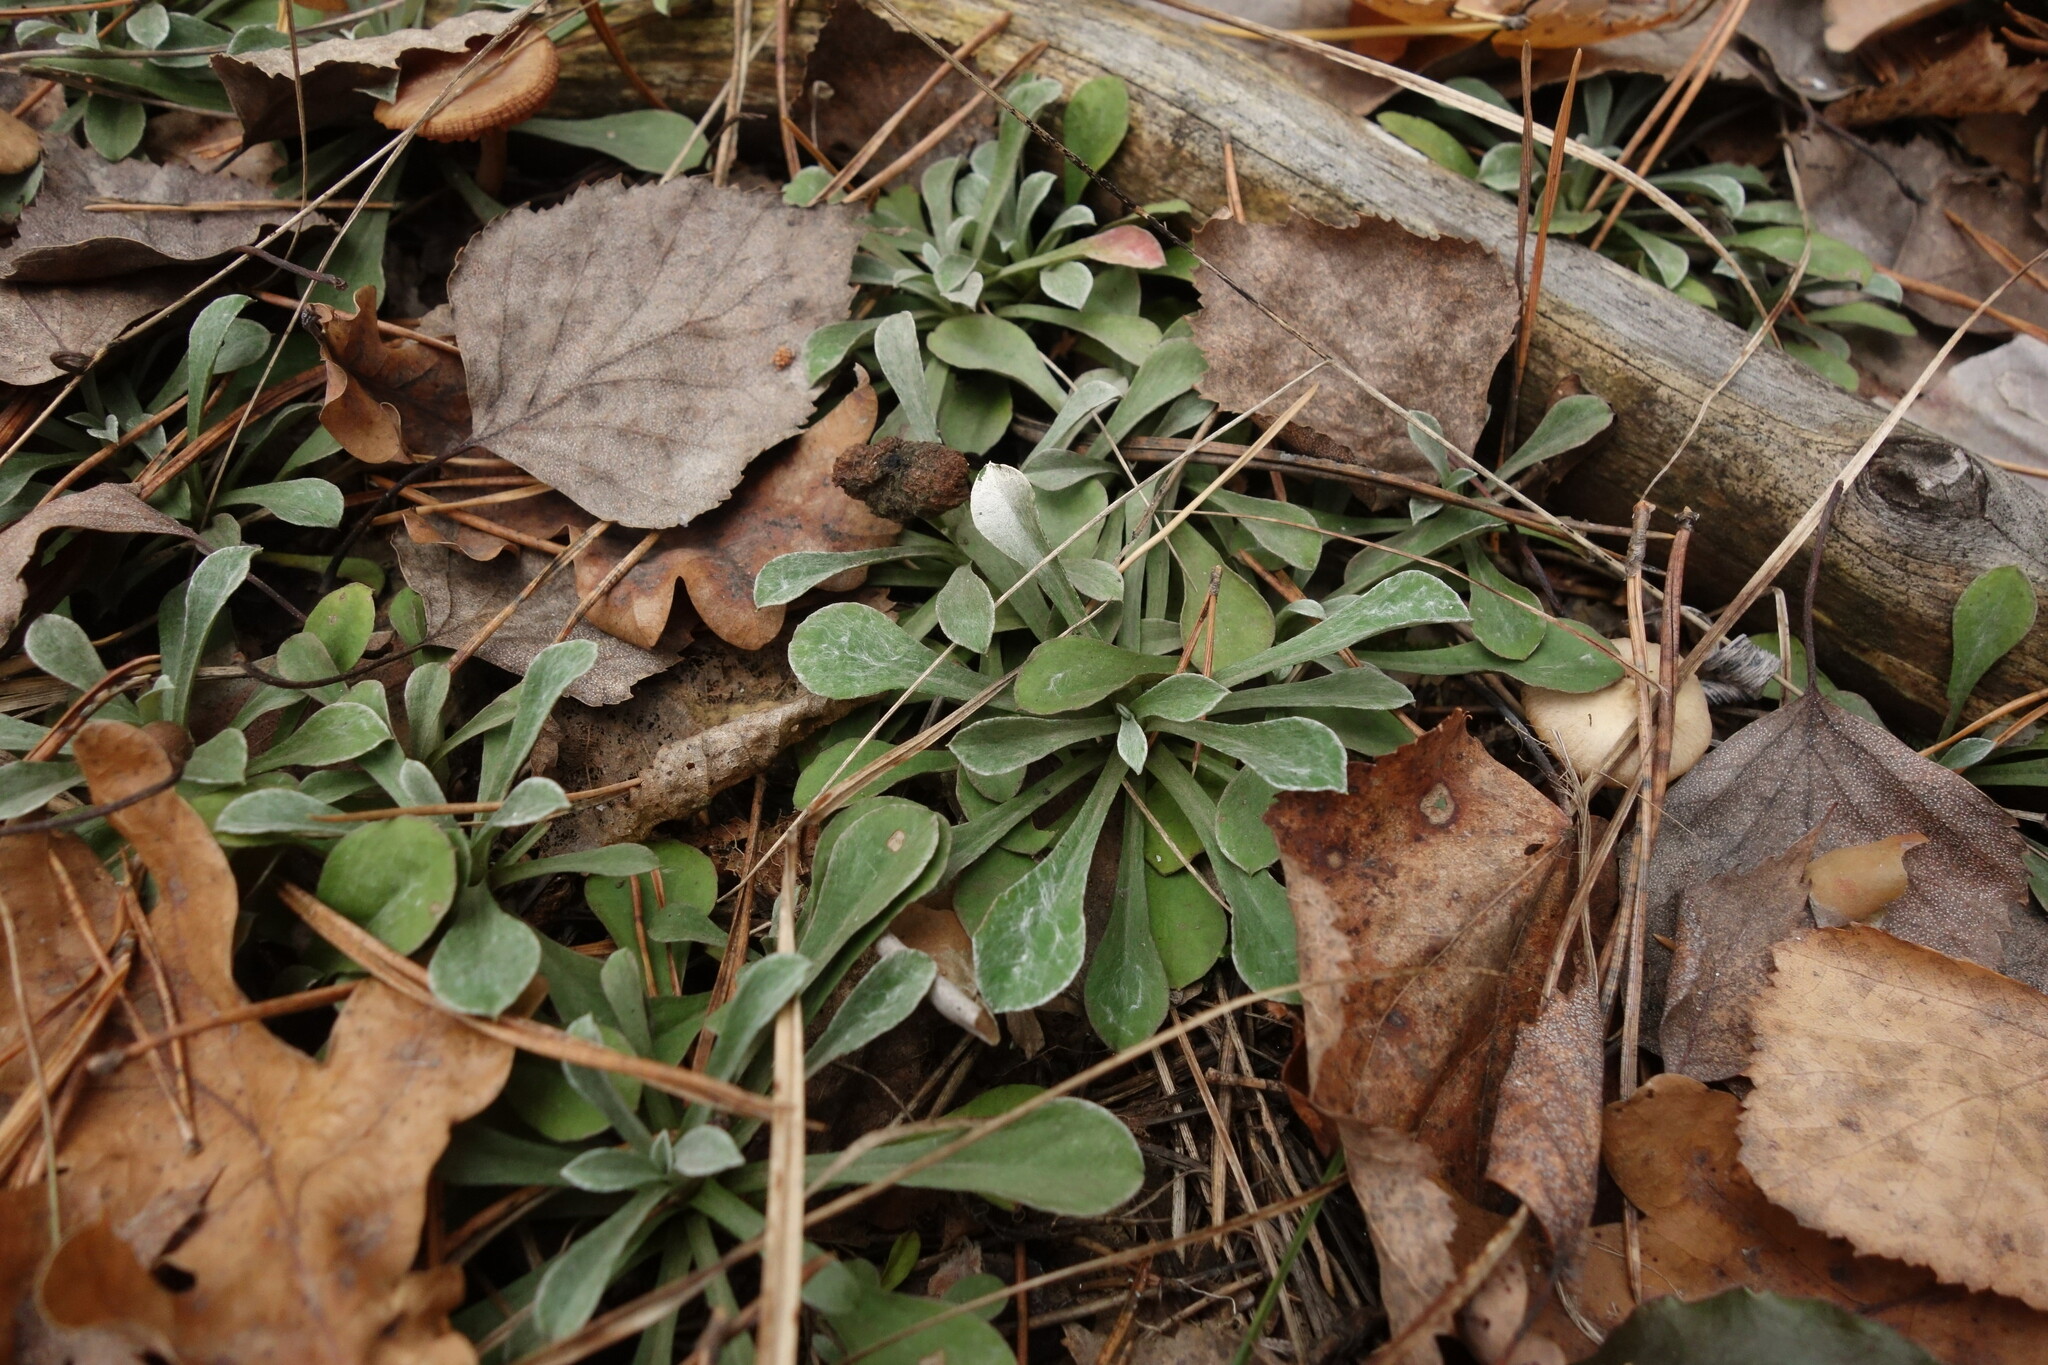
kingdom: Plantae
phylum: Tracheophyta
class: Magnoliopsida
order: Asterales
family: Asteraceae
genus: Antennaria
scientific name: Antennaria dioica
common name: Mountain everlasting
